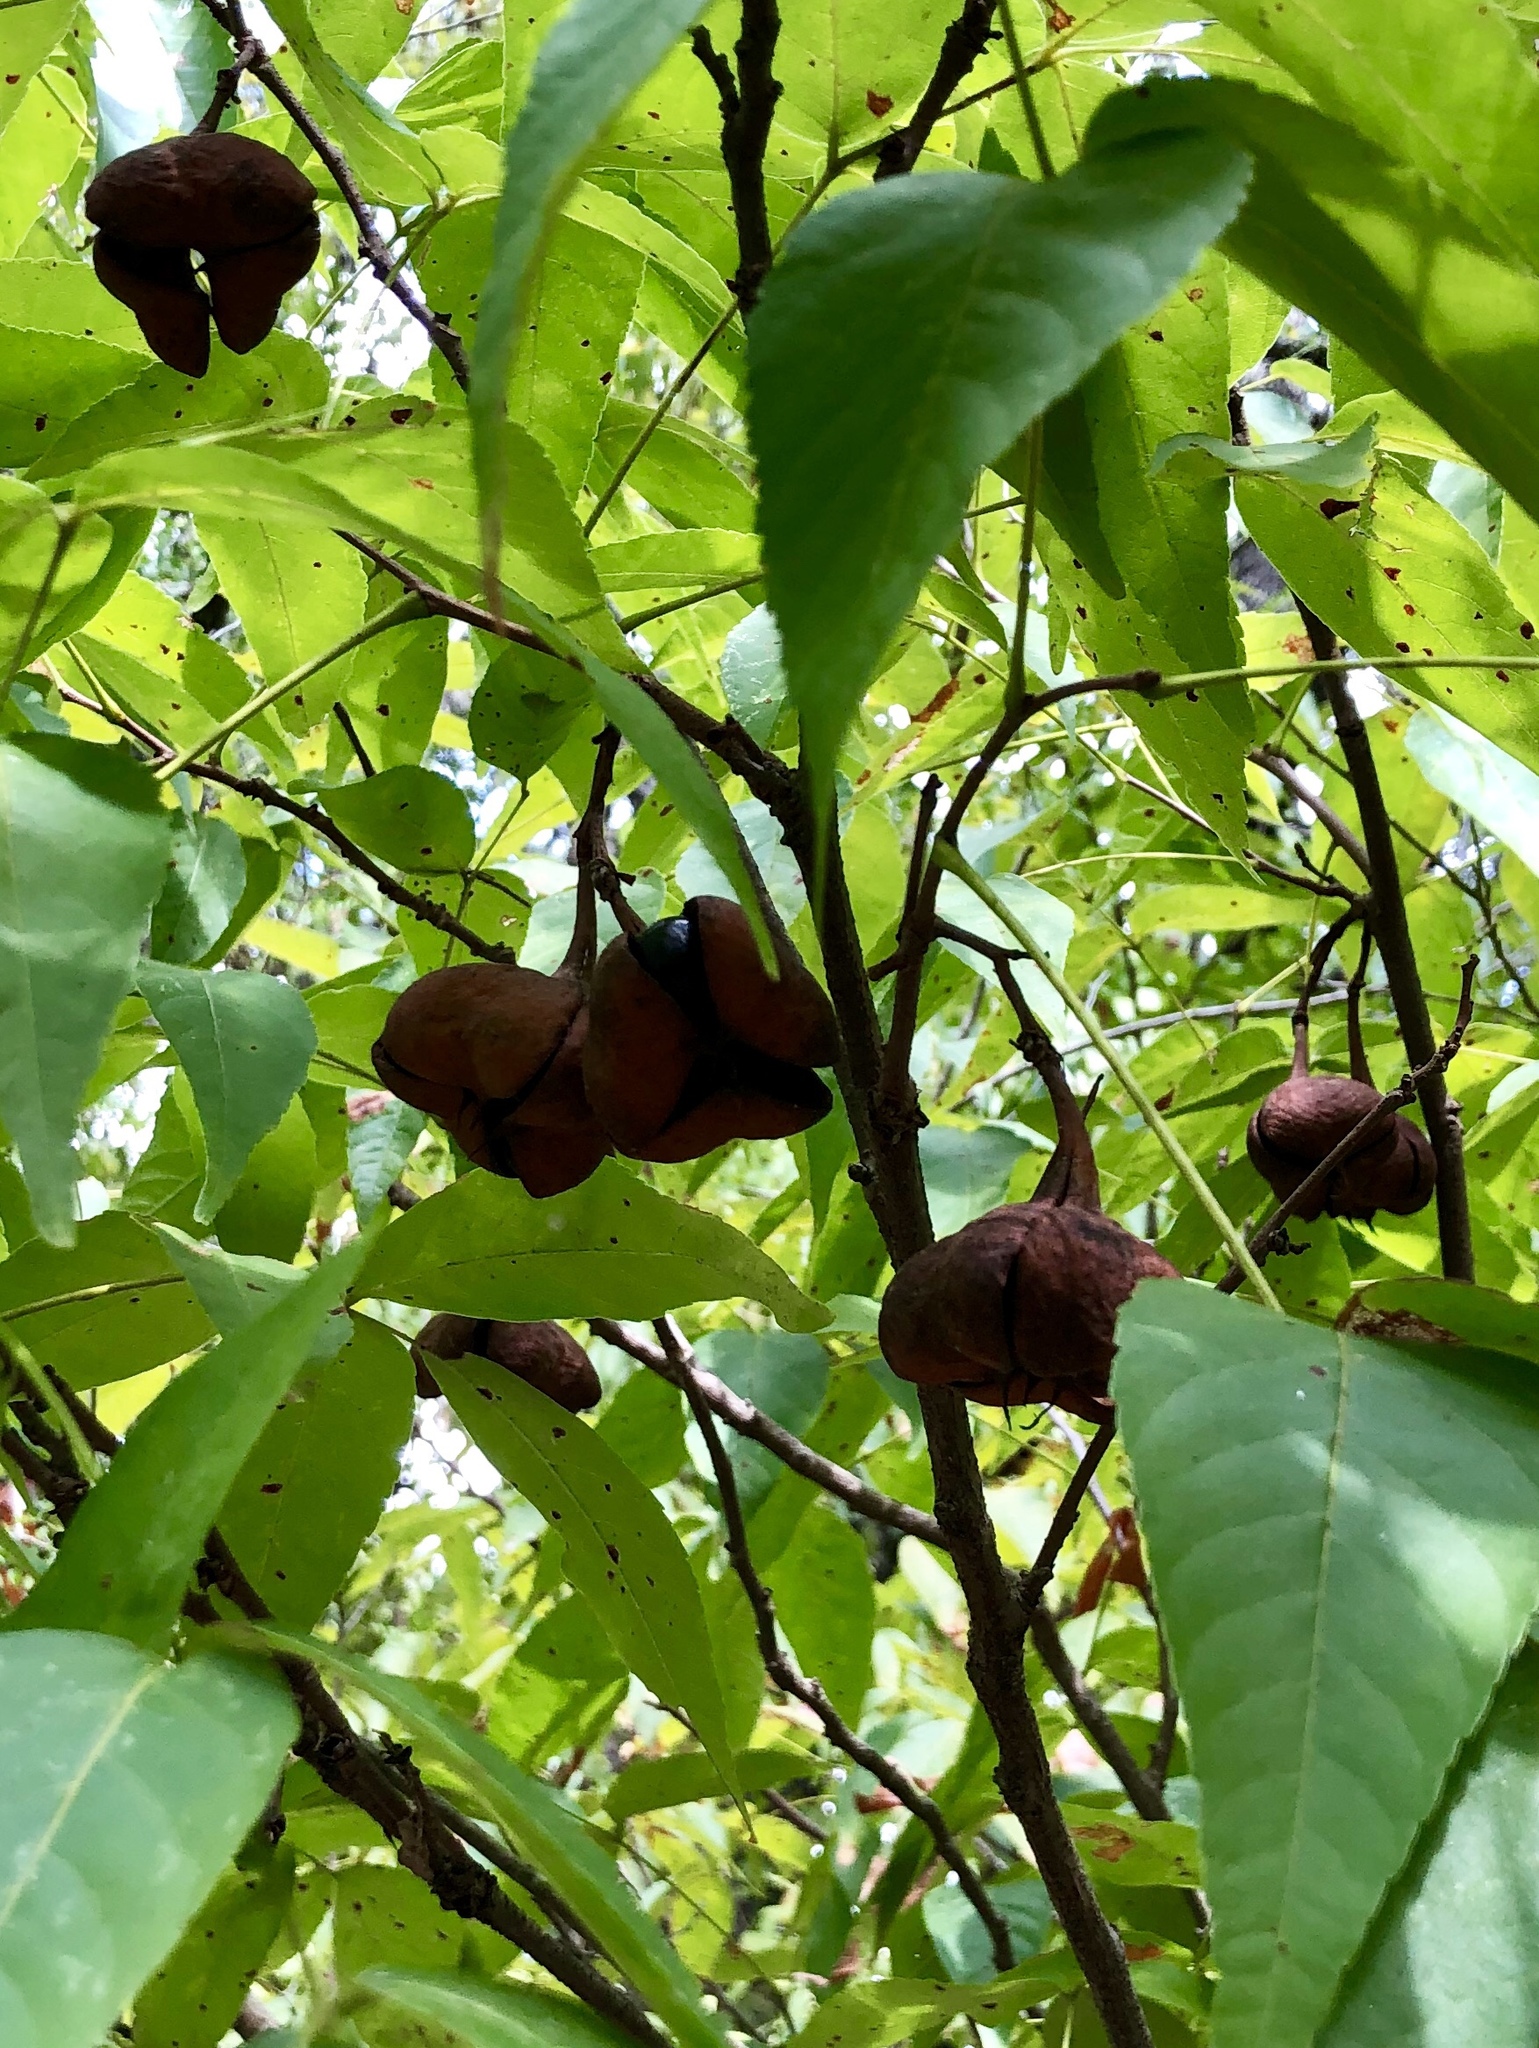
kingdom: Plantae
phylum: Tracheophyta
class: Magnoliopsida
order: Sapindales
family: Sapindaceae
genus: Ungnadia
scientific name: Ungnadia speciosa
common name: Texas-buckeye
